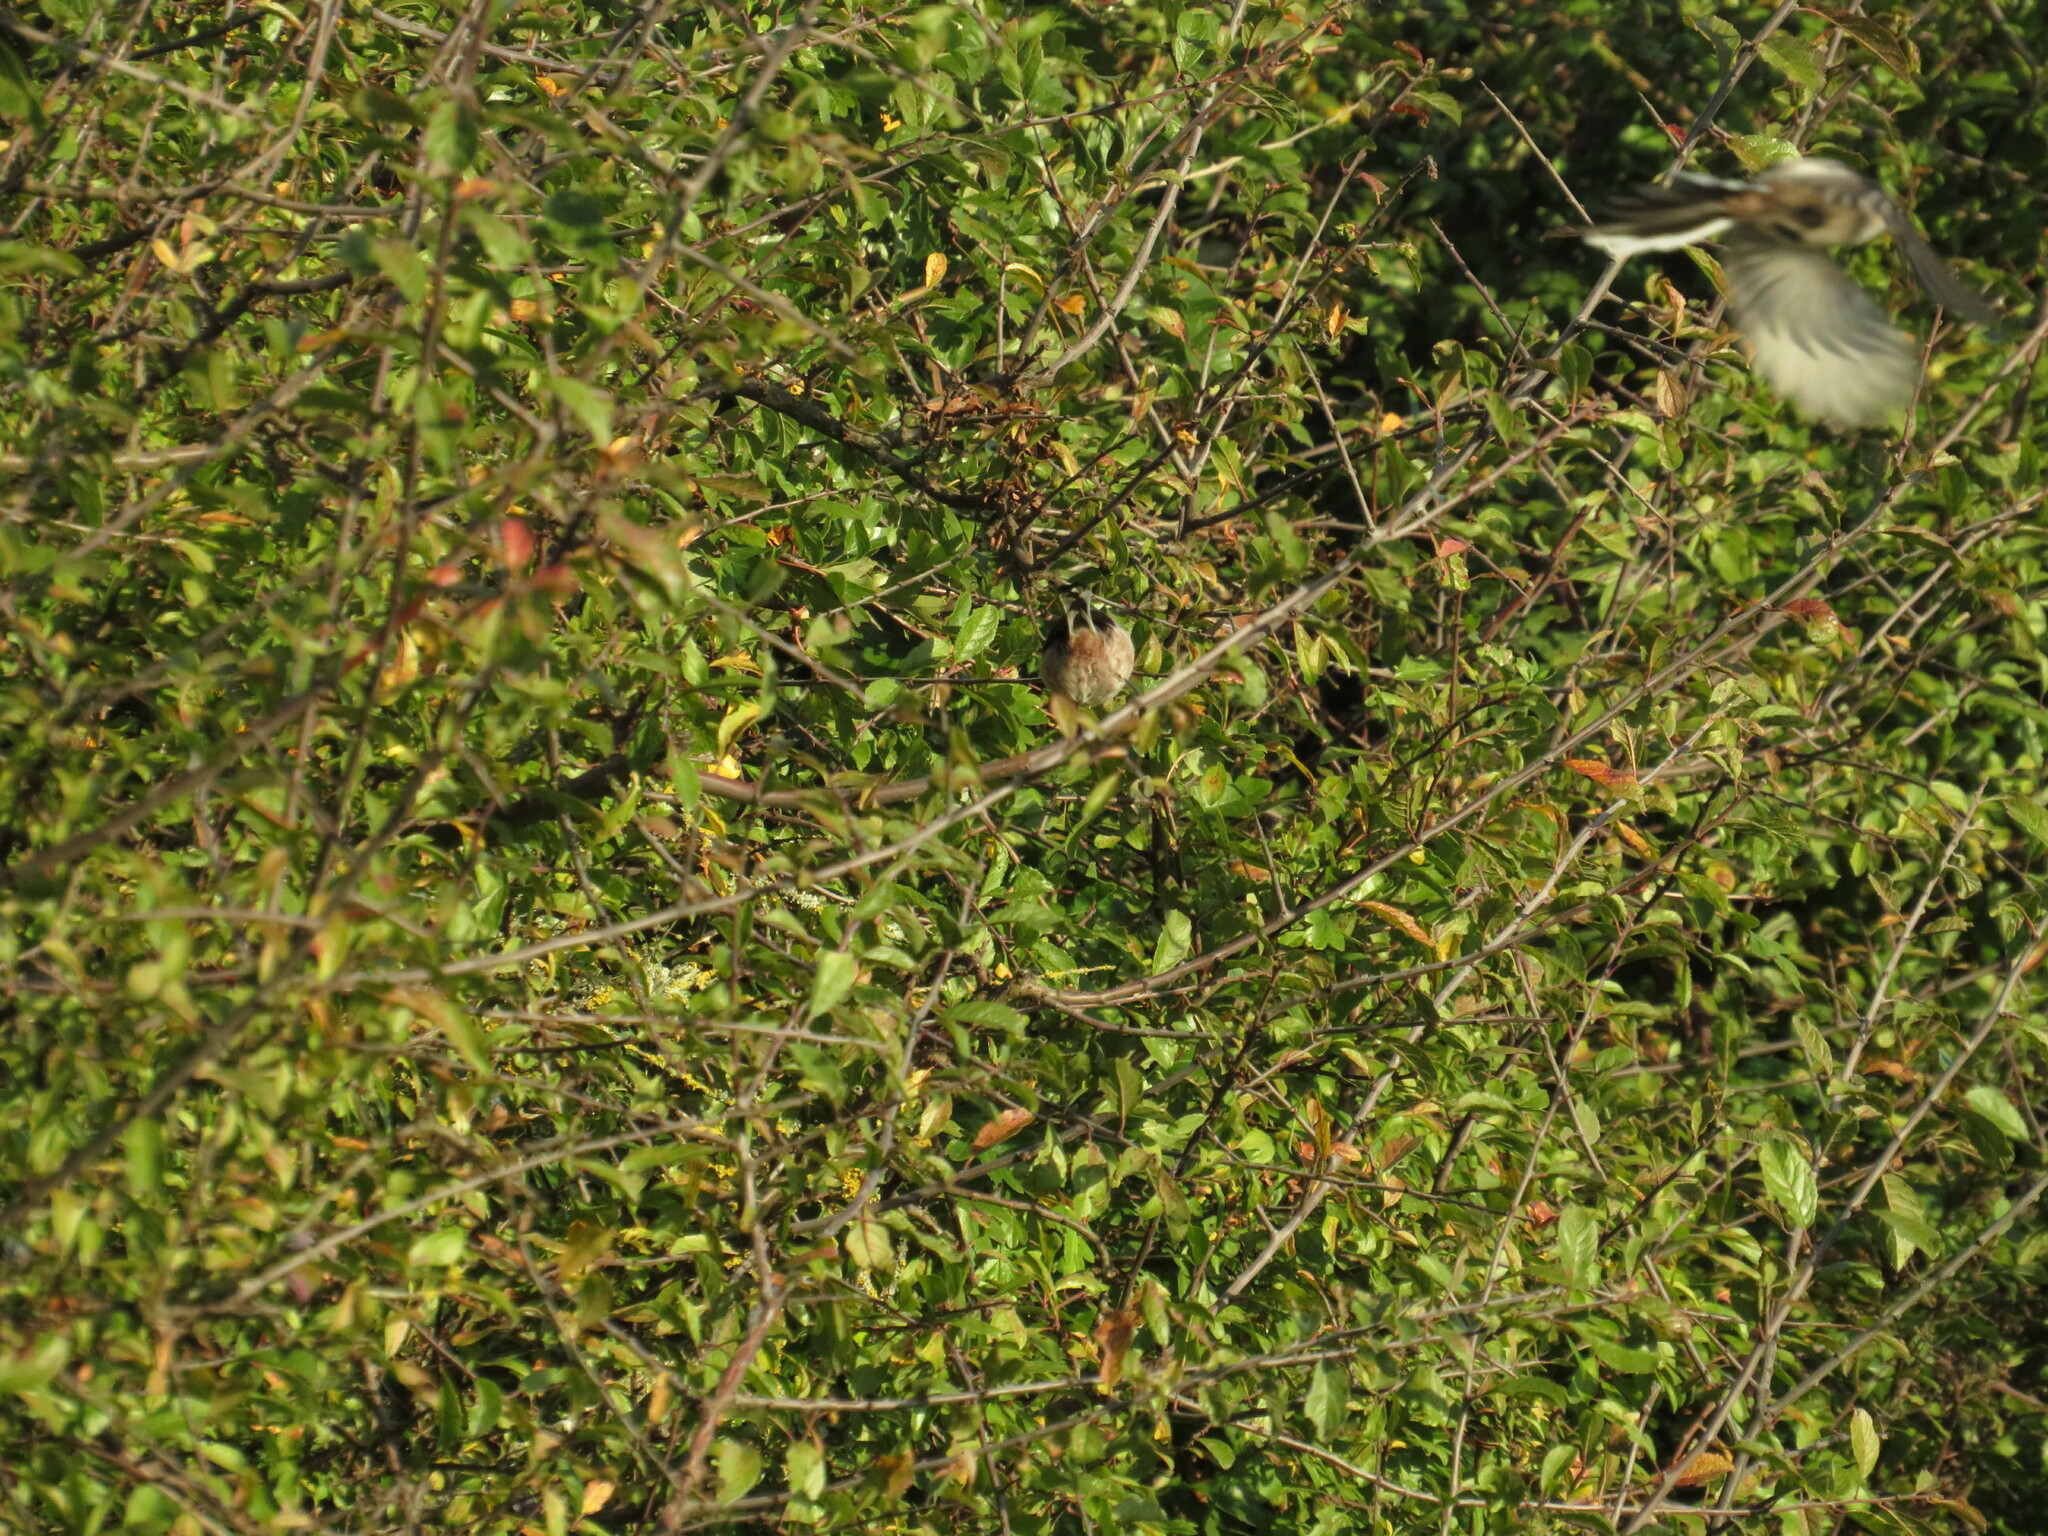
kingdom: Animalia
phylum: Chordata
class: Aves
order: Passeriformes
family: Aegithalidae
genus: Aegithalos
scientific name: Aegithalos caudatus
